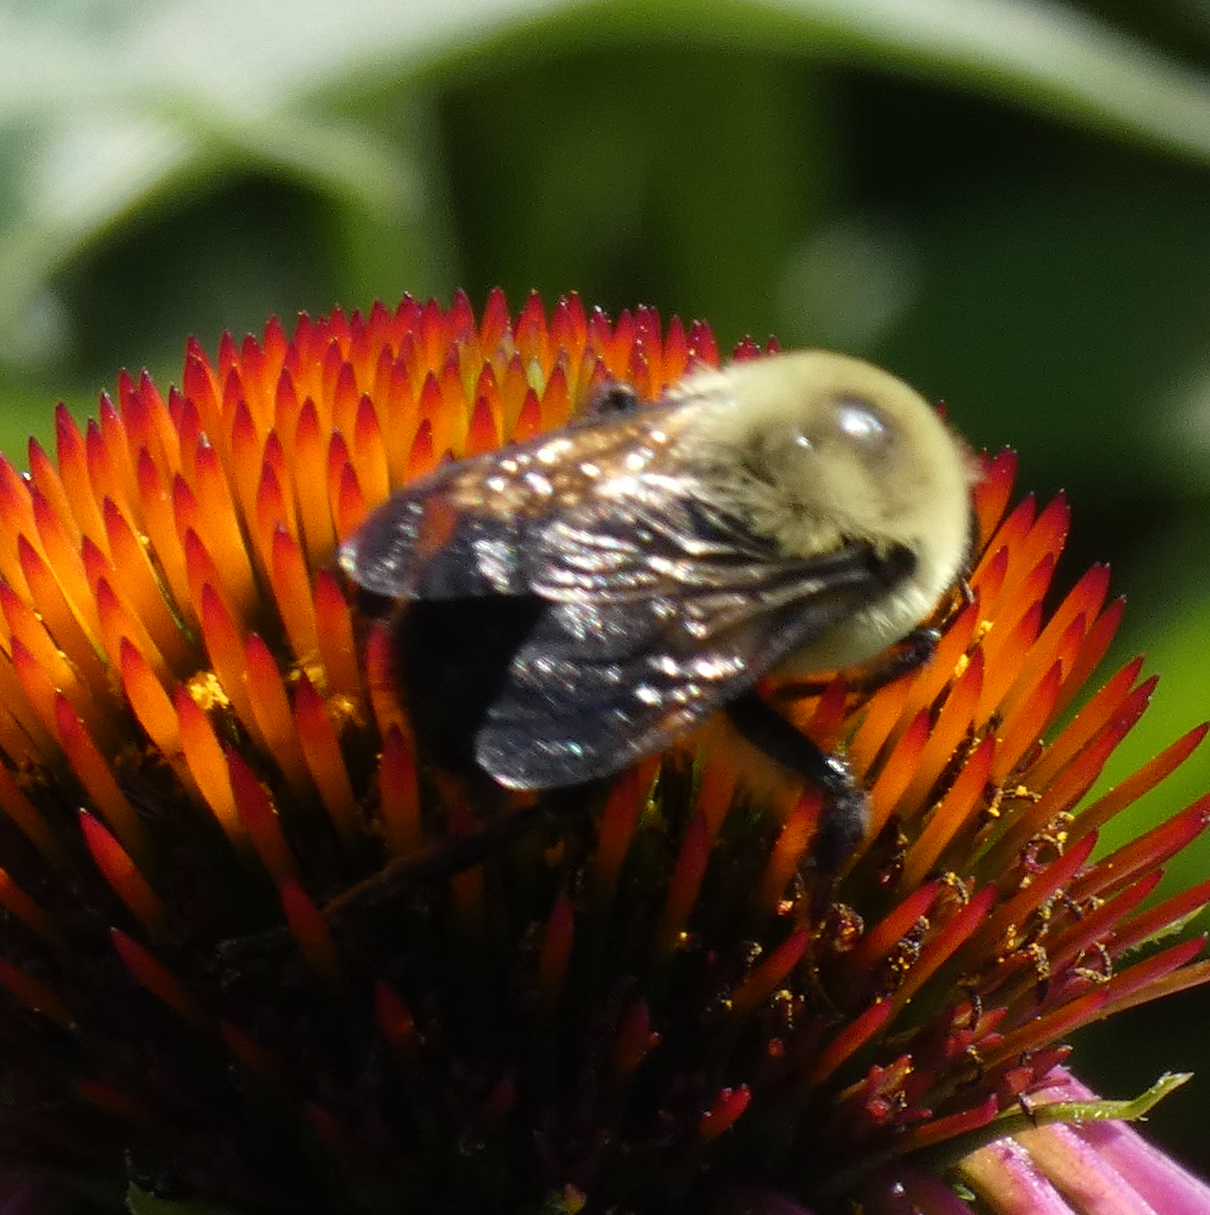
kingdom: Animalia
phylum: Arthropoda
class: Insecta
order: Hymenoptera
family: Apidae
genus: Bombus
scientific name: Bombus griseocollis
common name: Brown-belted bumble bee
